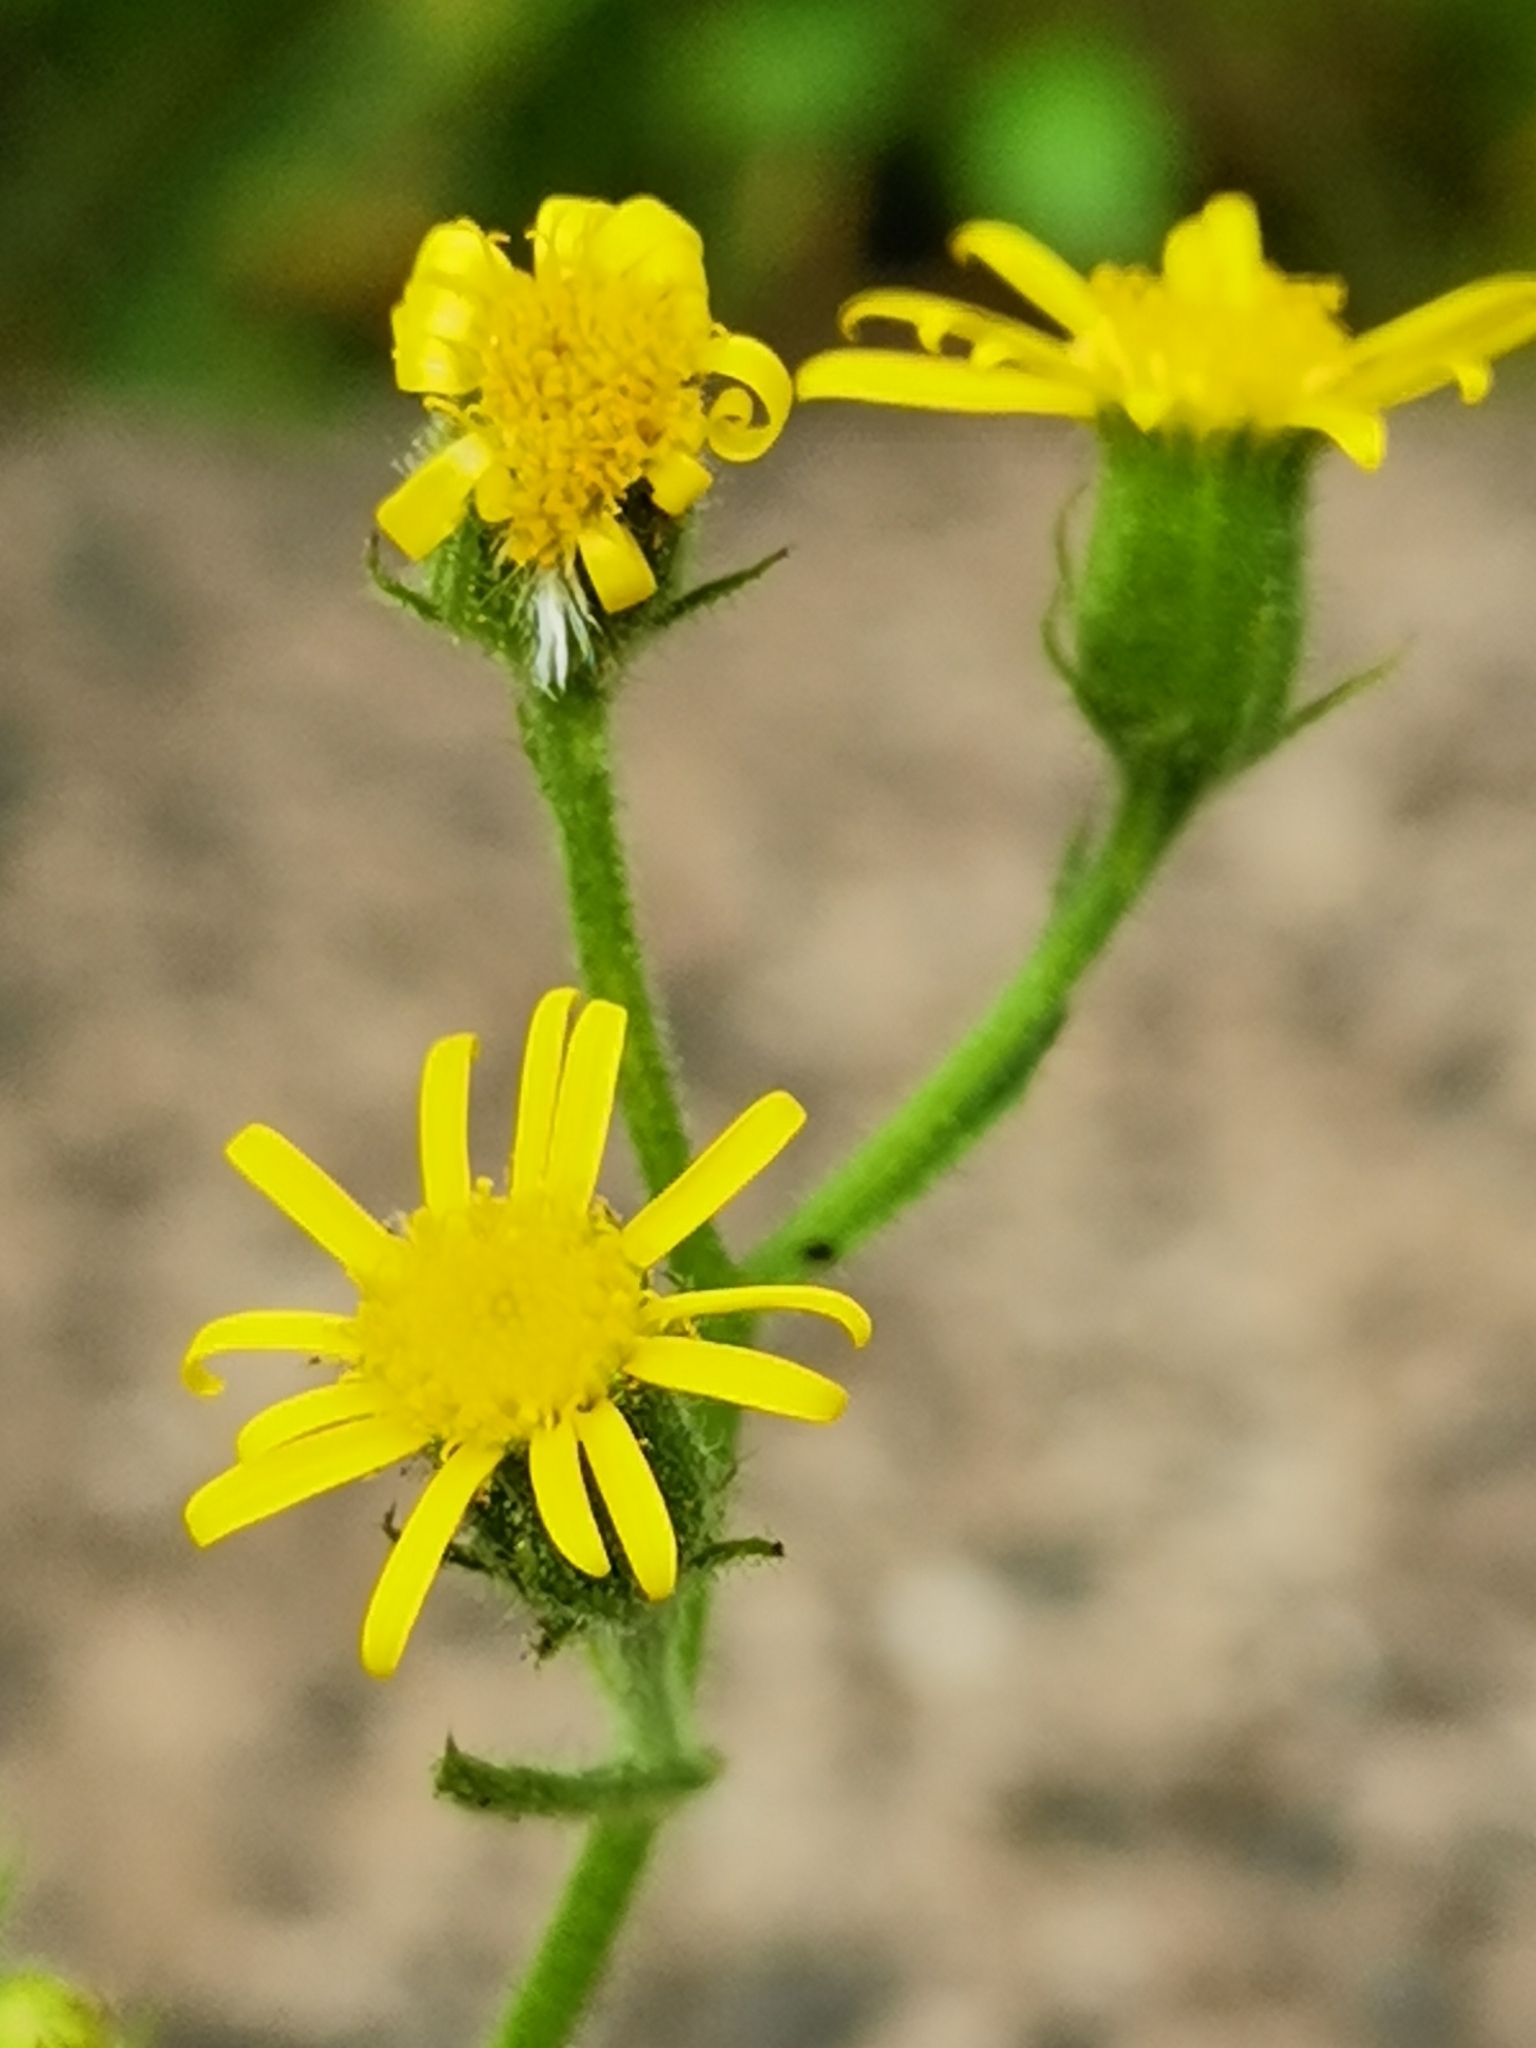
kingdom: Plantae
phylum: Tracheophyta
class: Magnoliopsida
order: Asterales
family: Asteraceae
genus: Senecio
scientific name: Senecio viscosus
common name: Sticky groundsel
